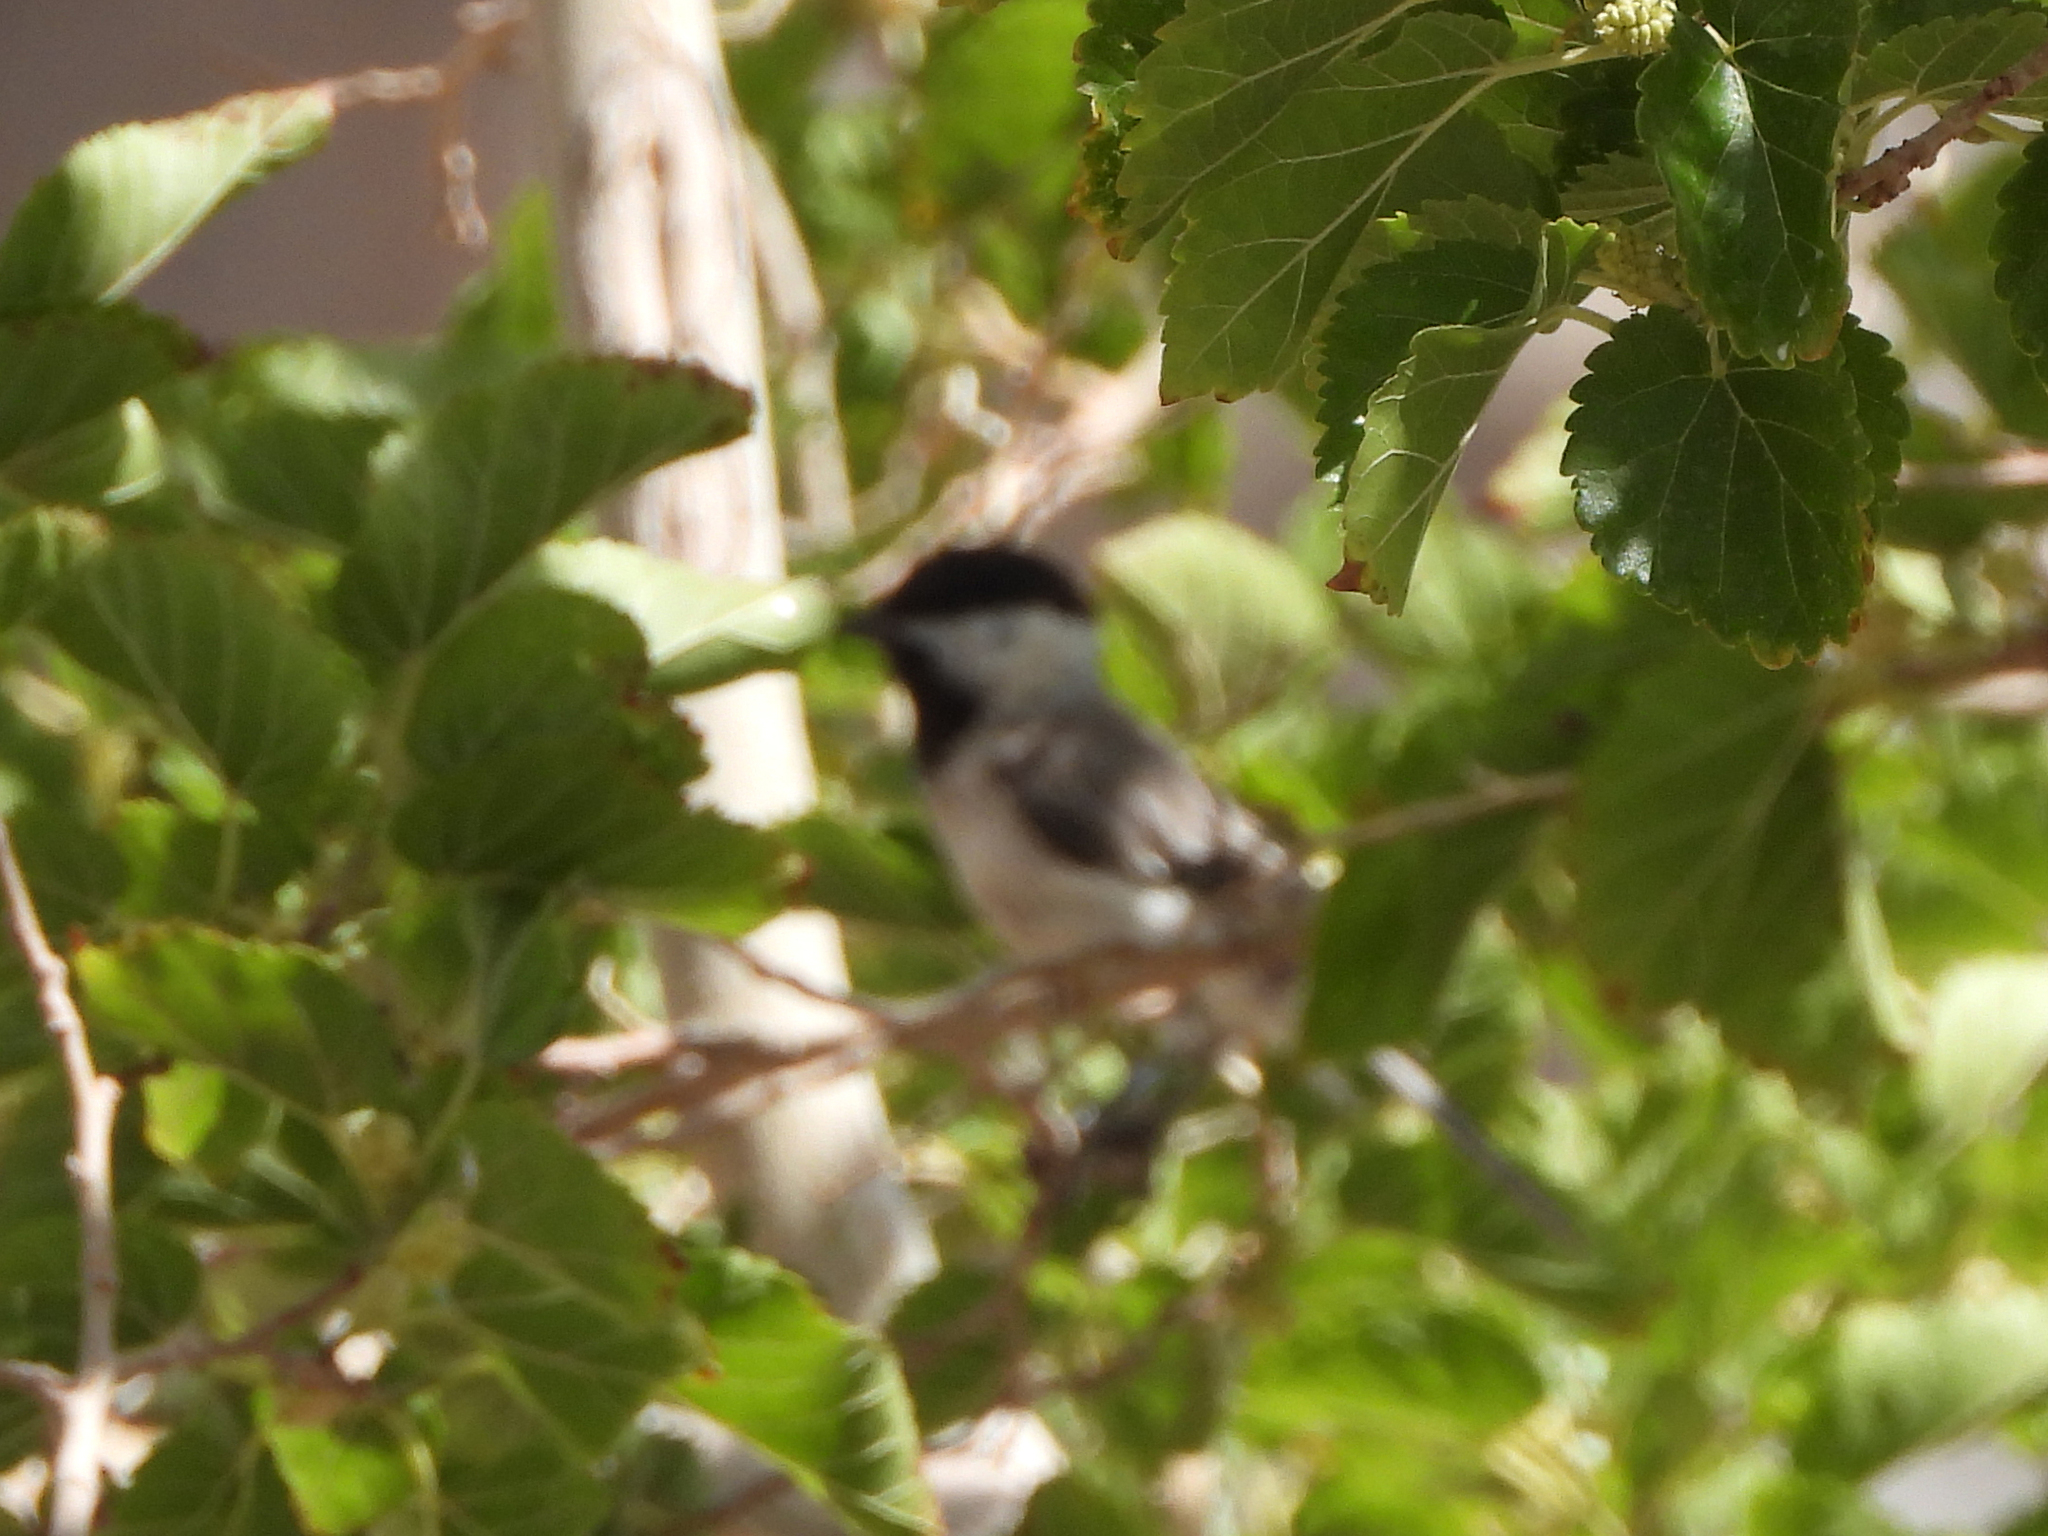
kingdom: Animalia
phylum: Chordata
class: Aves
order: Passeriformes
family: Paridae
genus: Poecile
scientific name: Poecile lugubris
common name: Sombre tit
